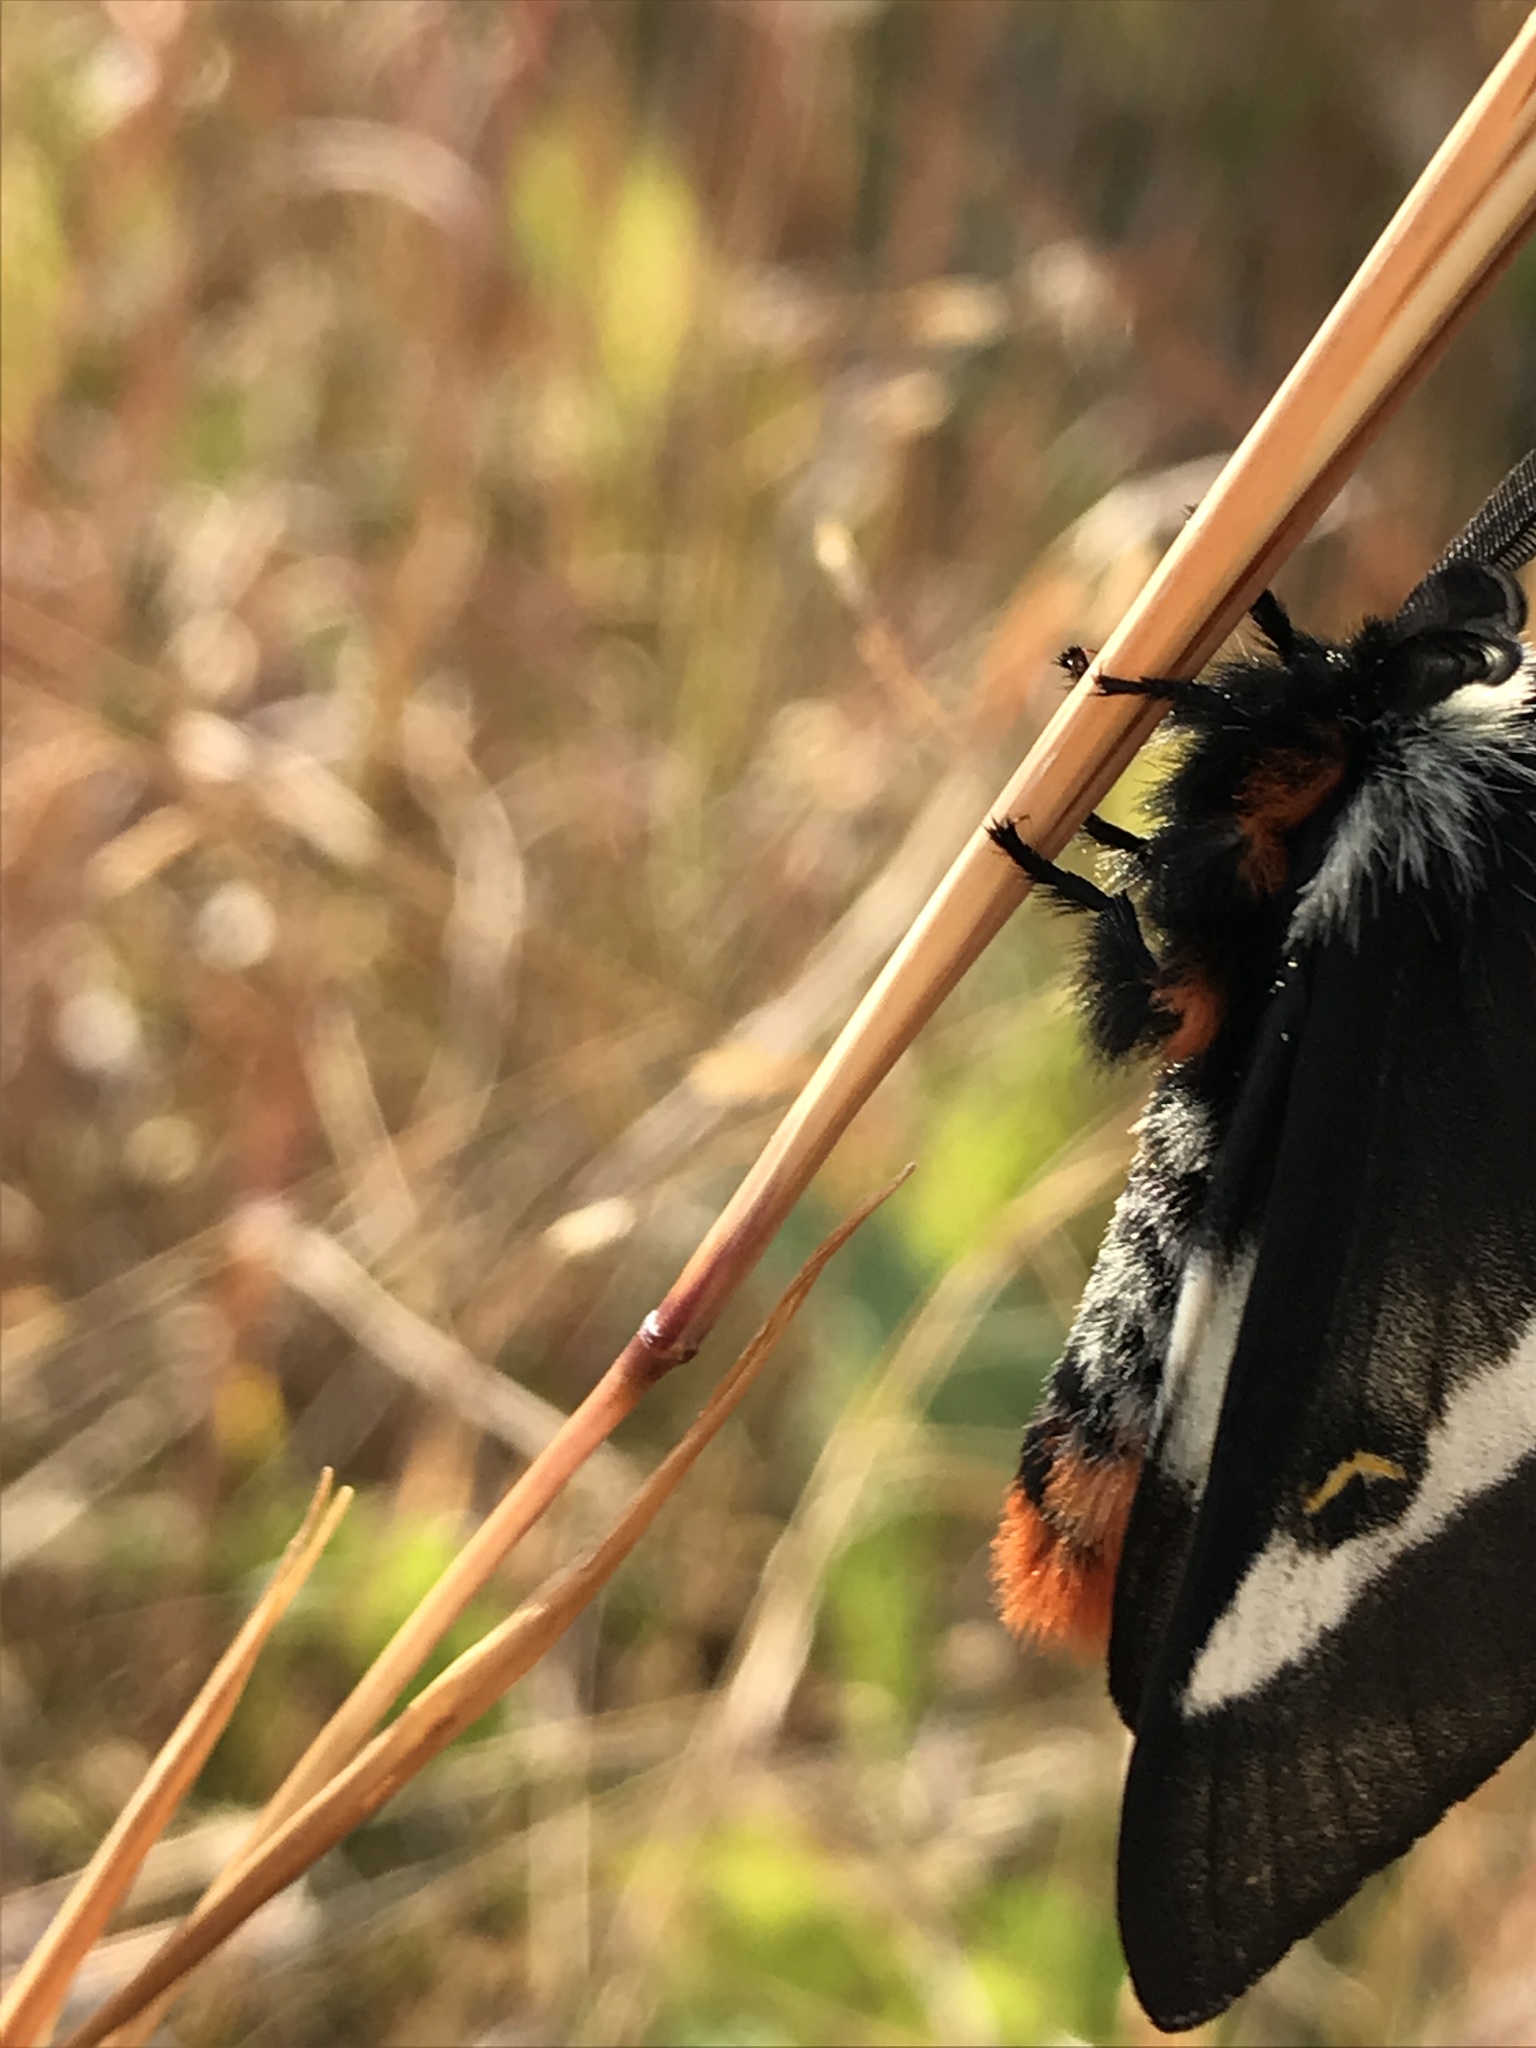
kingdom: Animalia
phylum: Arthropoda
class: Insecta
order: Lepidoptera
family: Saturniidae
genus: Hemileuca
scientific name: Hemileuca maia
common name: Eastern buckmoth
